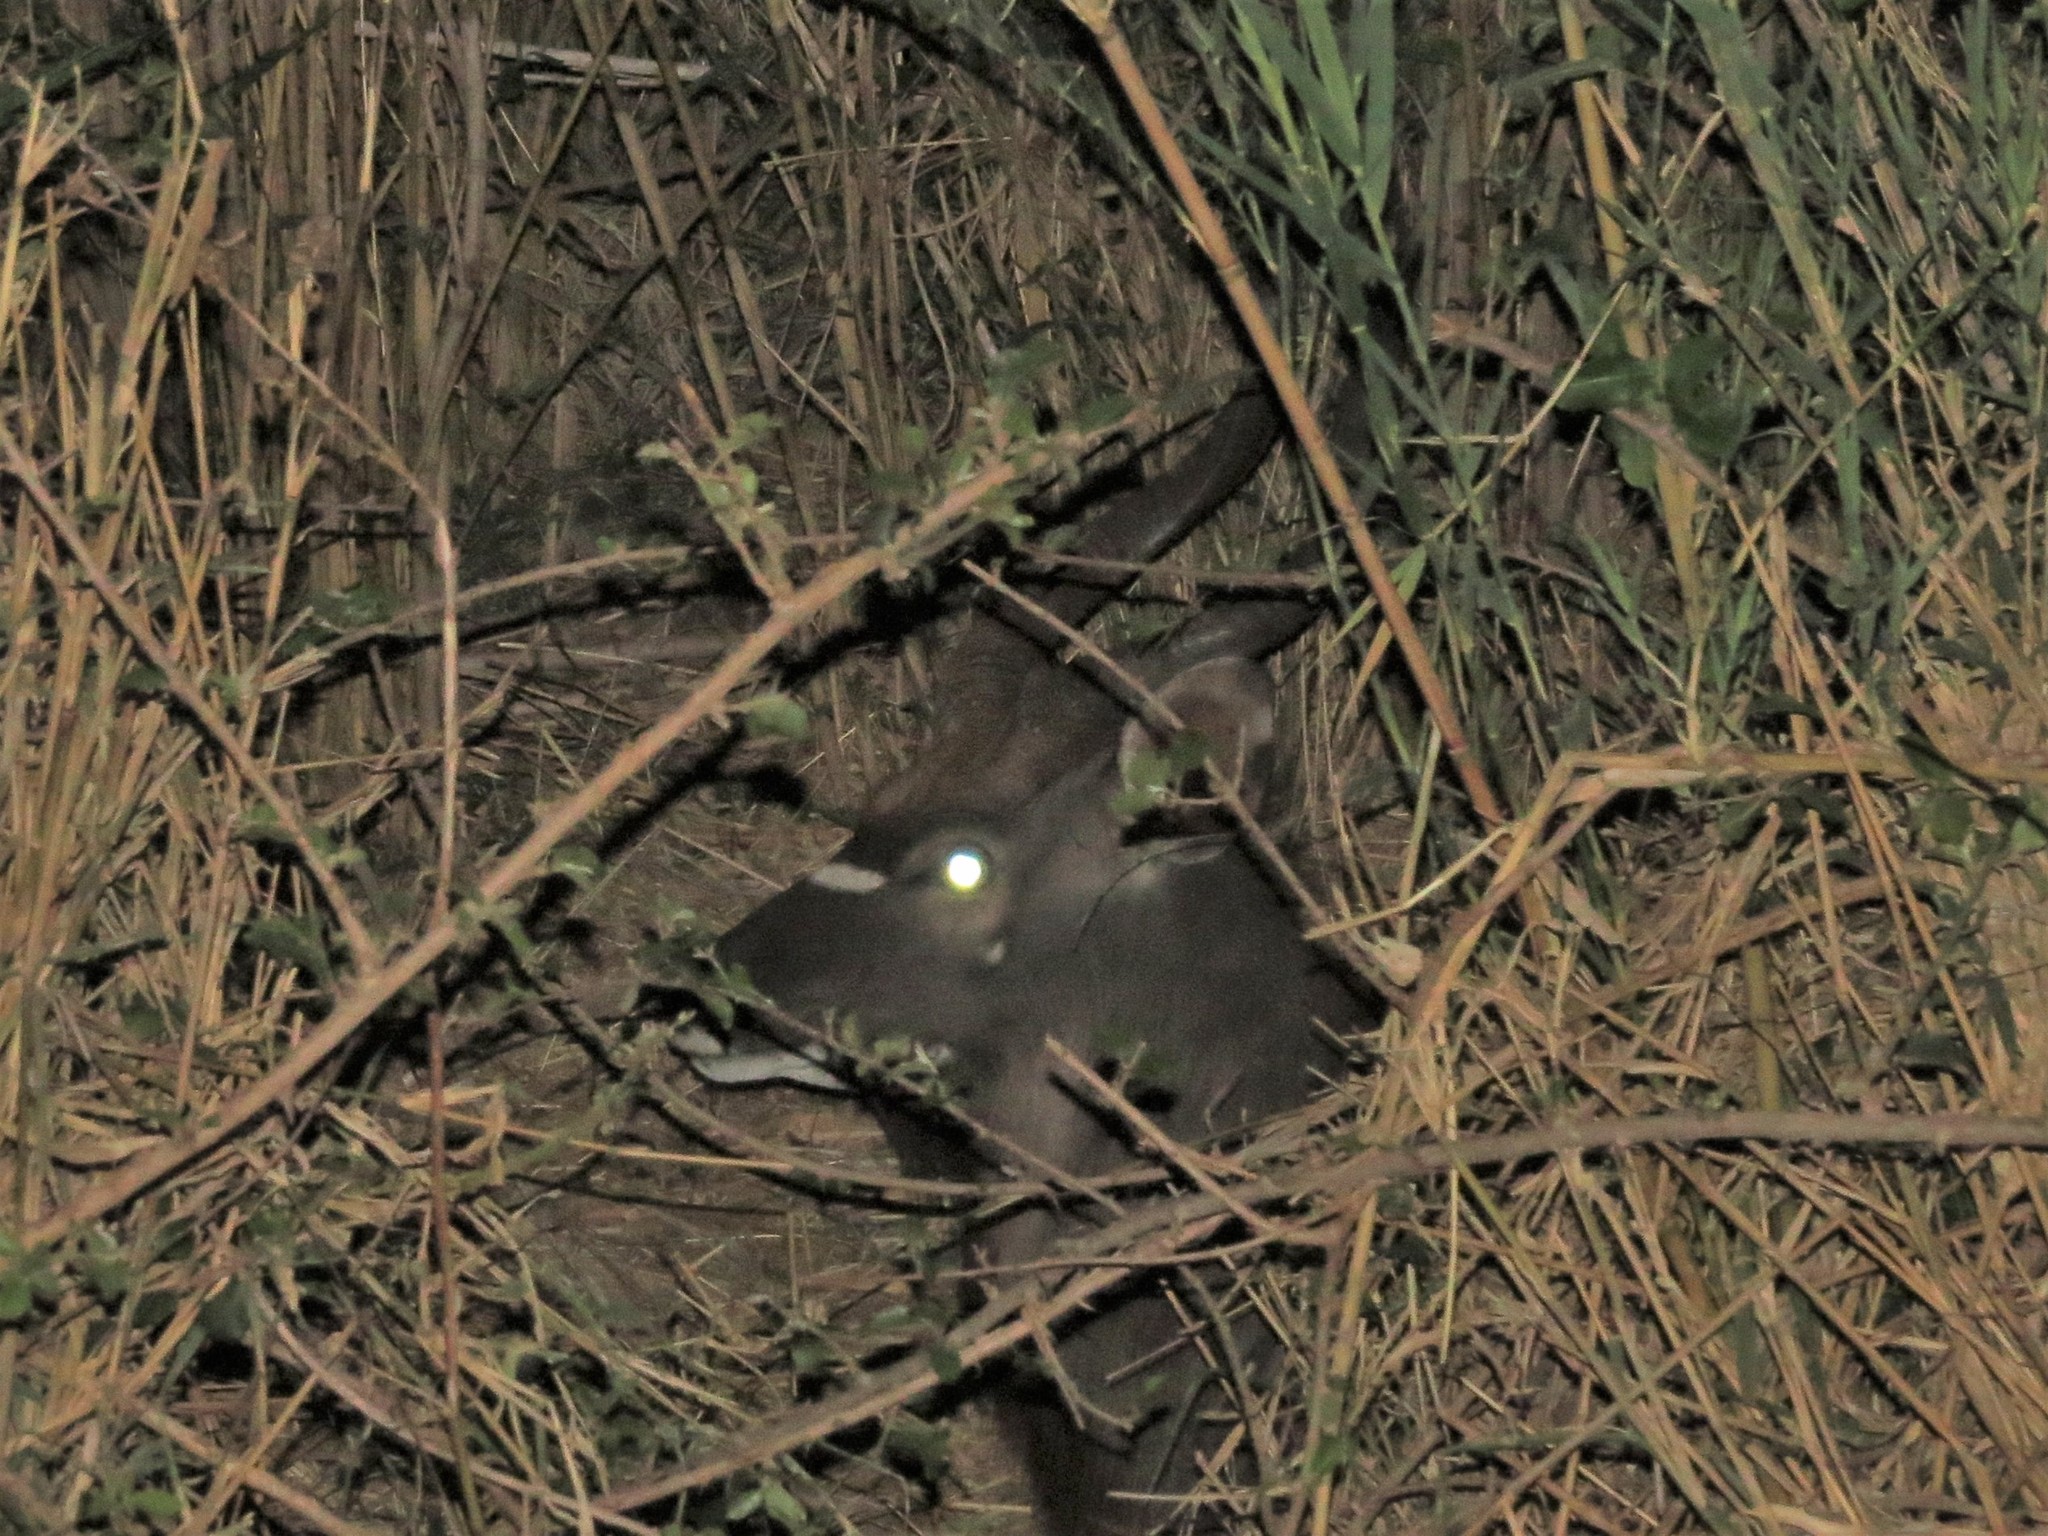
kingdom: Animalia
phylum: Chordata
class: Mammalia
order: Artiodactyla
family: Bovidae
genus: Tragelaphus
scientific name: Tragelaphus angasii
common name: Nyala
